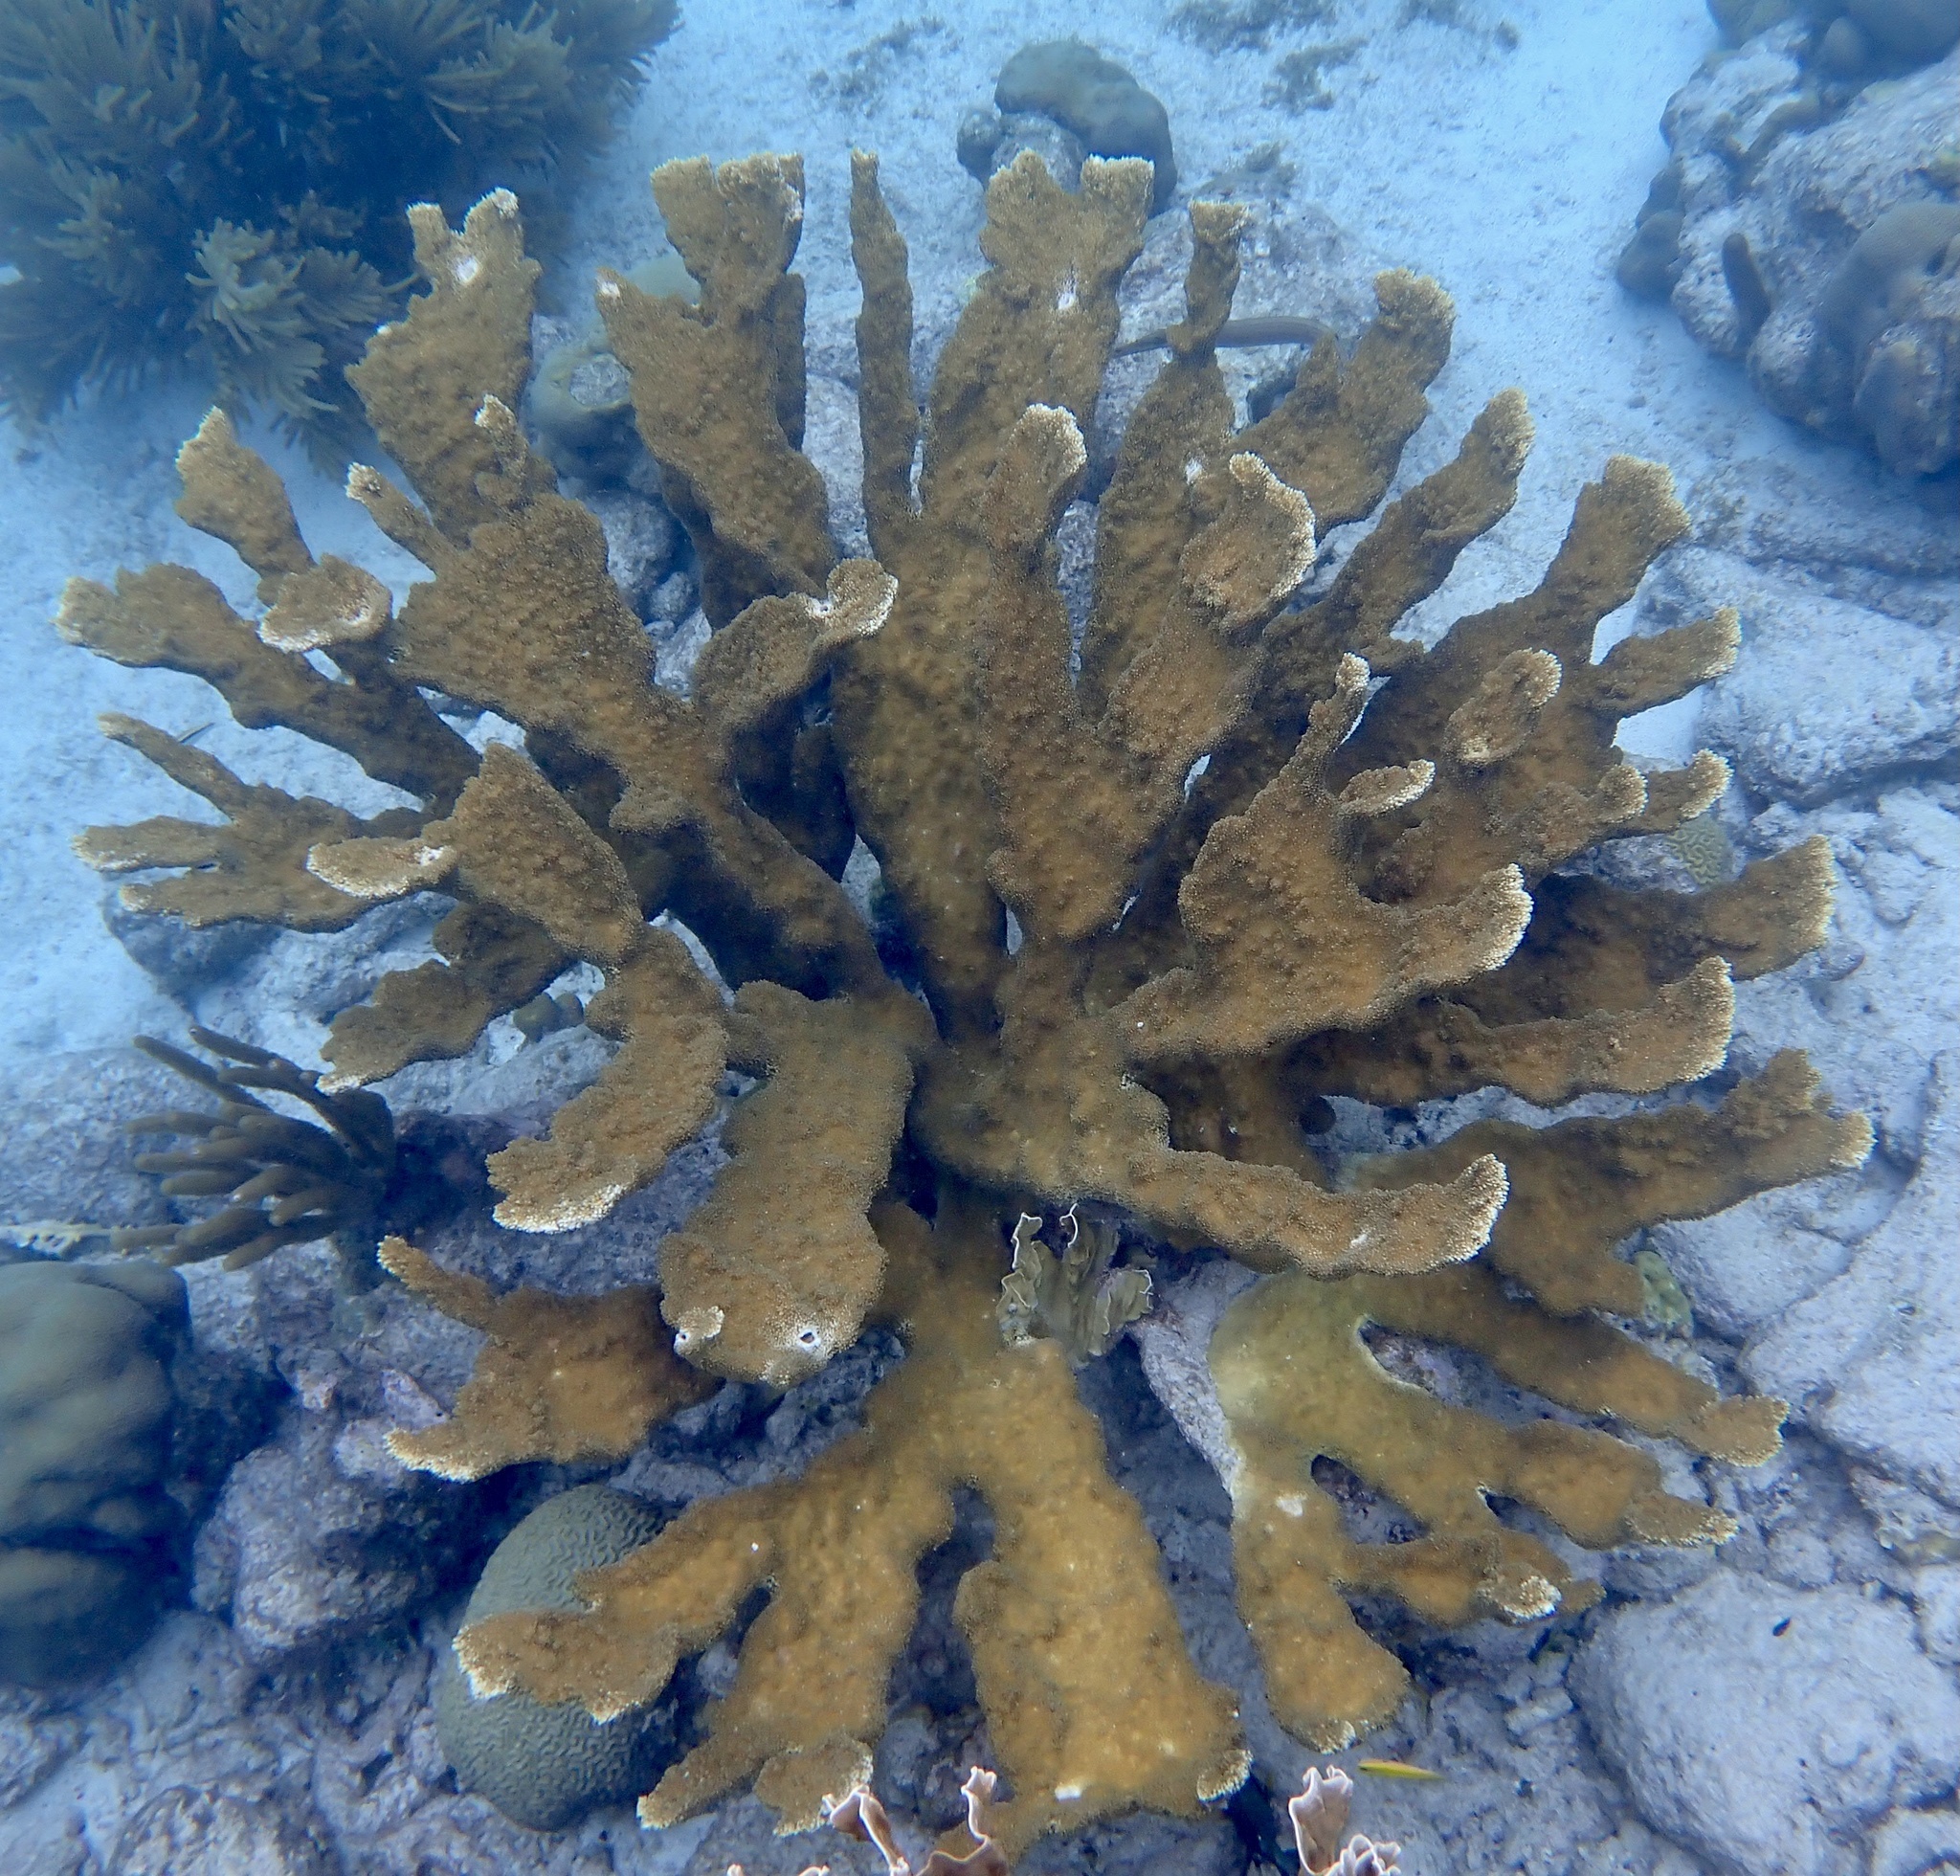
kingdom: Animalia
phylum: Cnidaria
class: Anthozoa
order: Scleractinia
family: Acroporidae
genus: Acropora
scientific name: Acropora palmata
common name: Elkhorn coral
